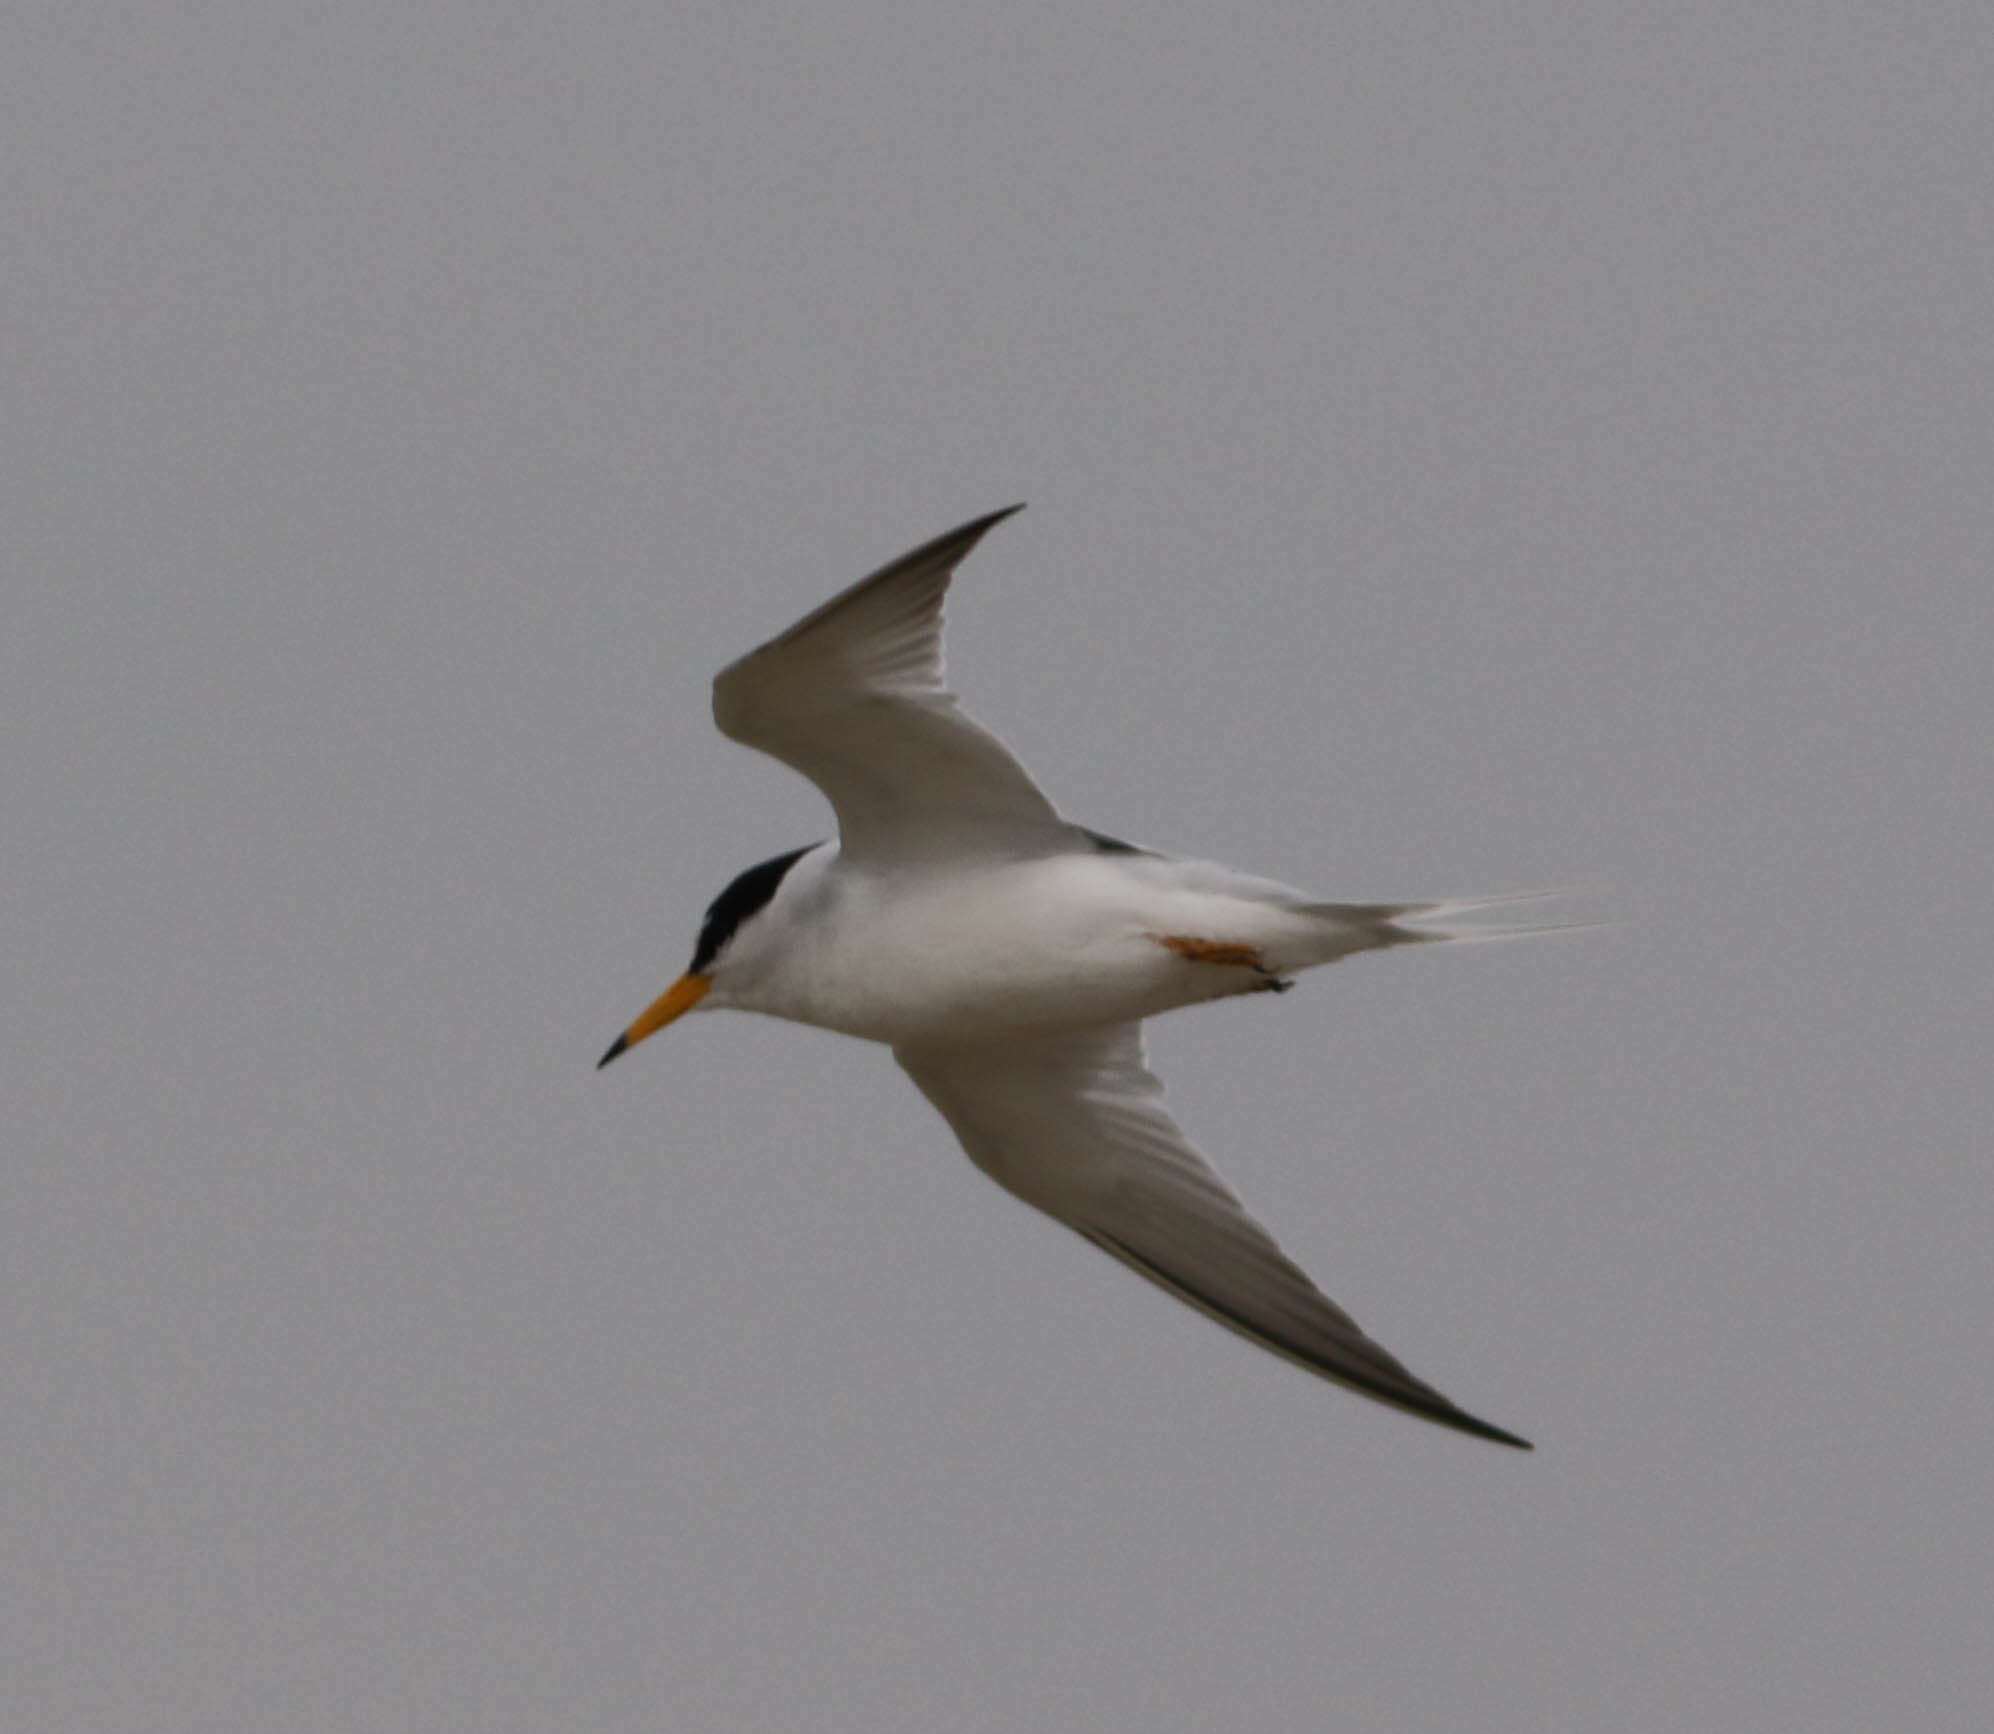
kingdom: Animalia
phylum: Chordata
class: Aves
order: Charadriiformes
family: Laridae
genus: Sternula
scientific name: Sternula antillarum
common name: Least tern
